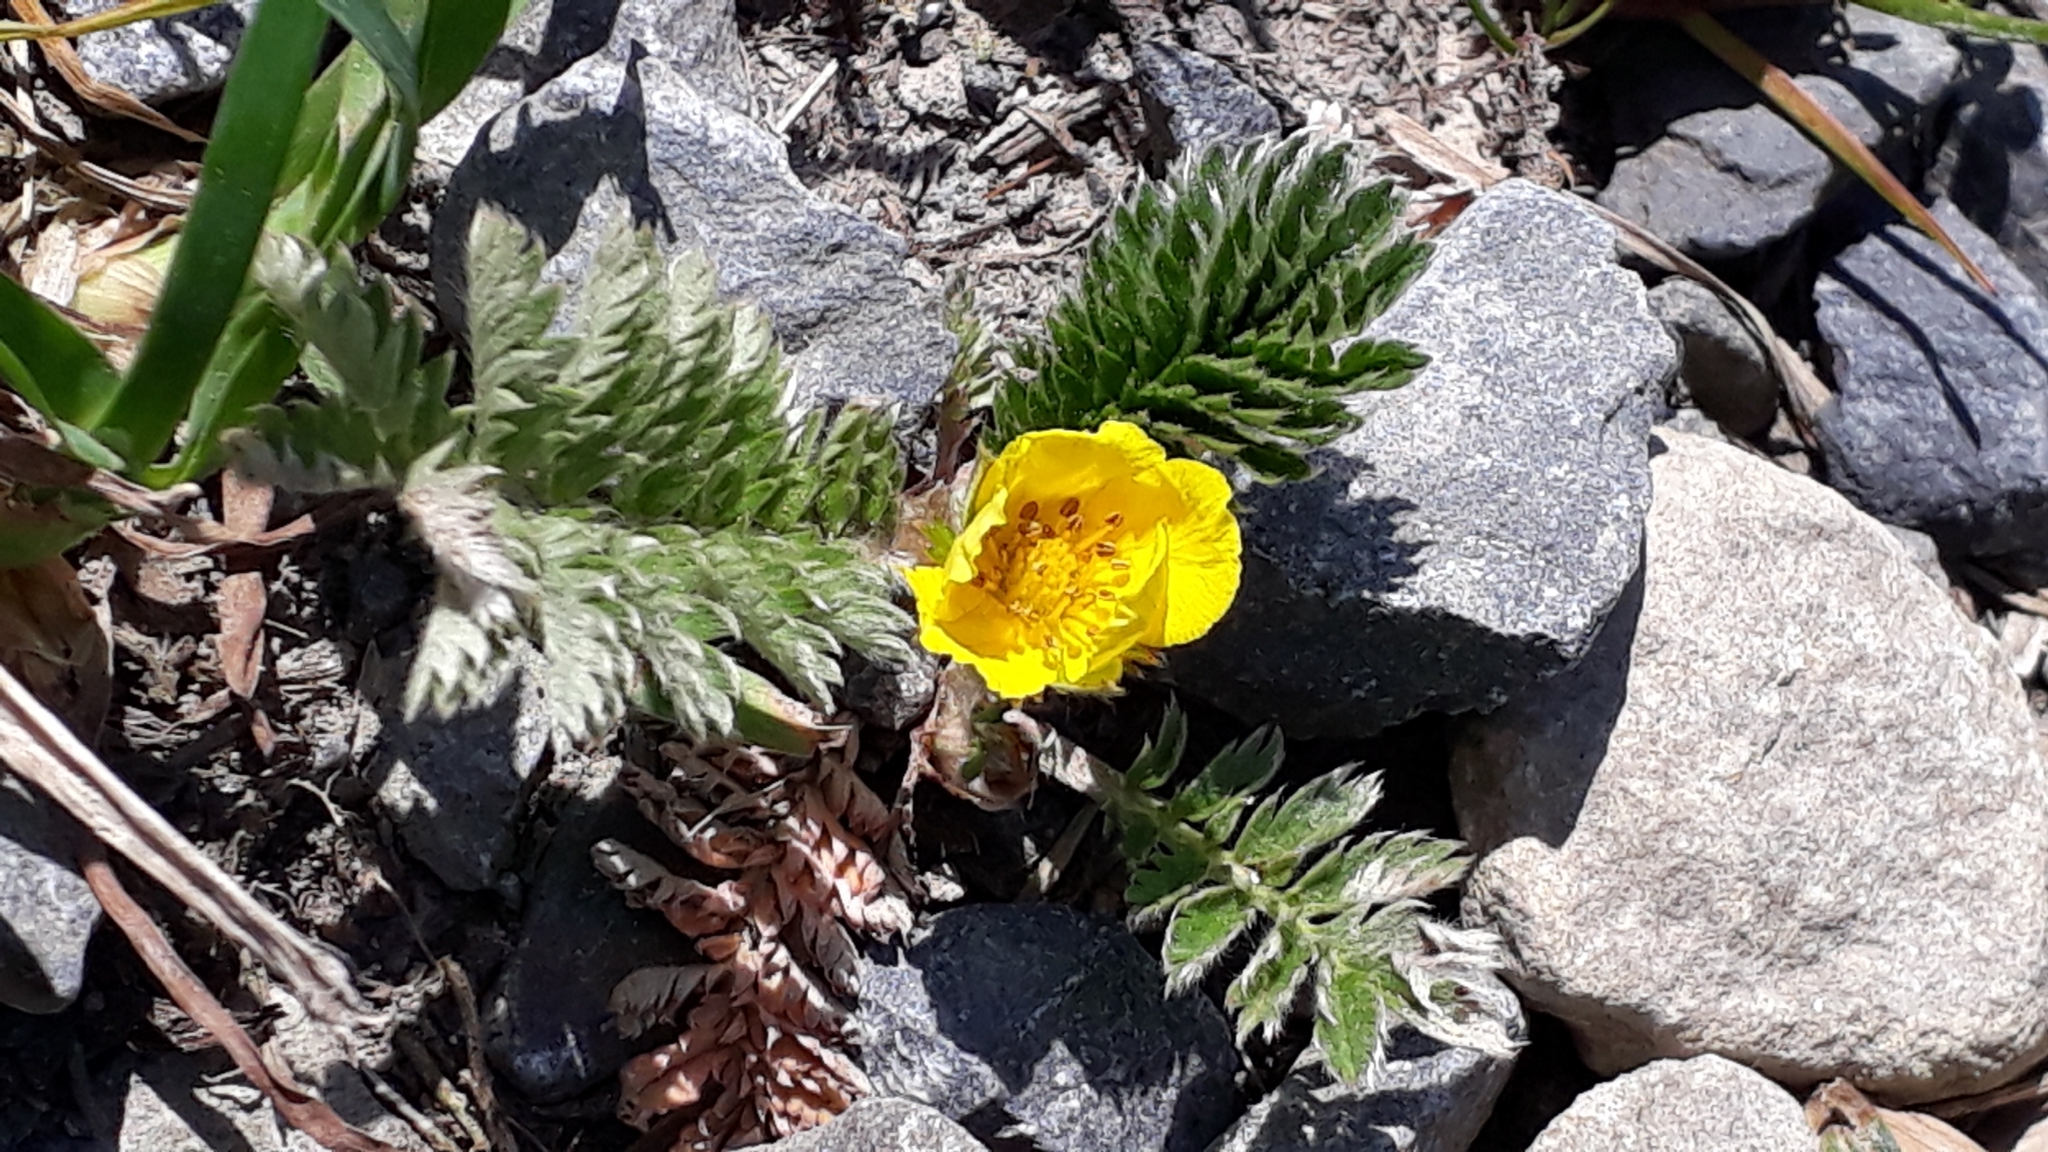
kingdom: Plantae
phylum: Tracheophyta
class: Magnoliopsida
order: Rosales
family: Rosaceae
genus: Argentina
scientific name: Argentina anserina
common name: Common silverweed
